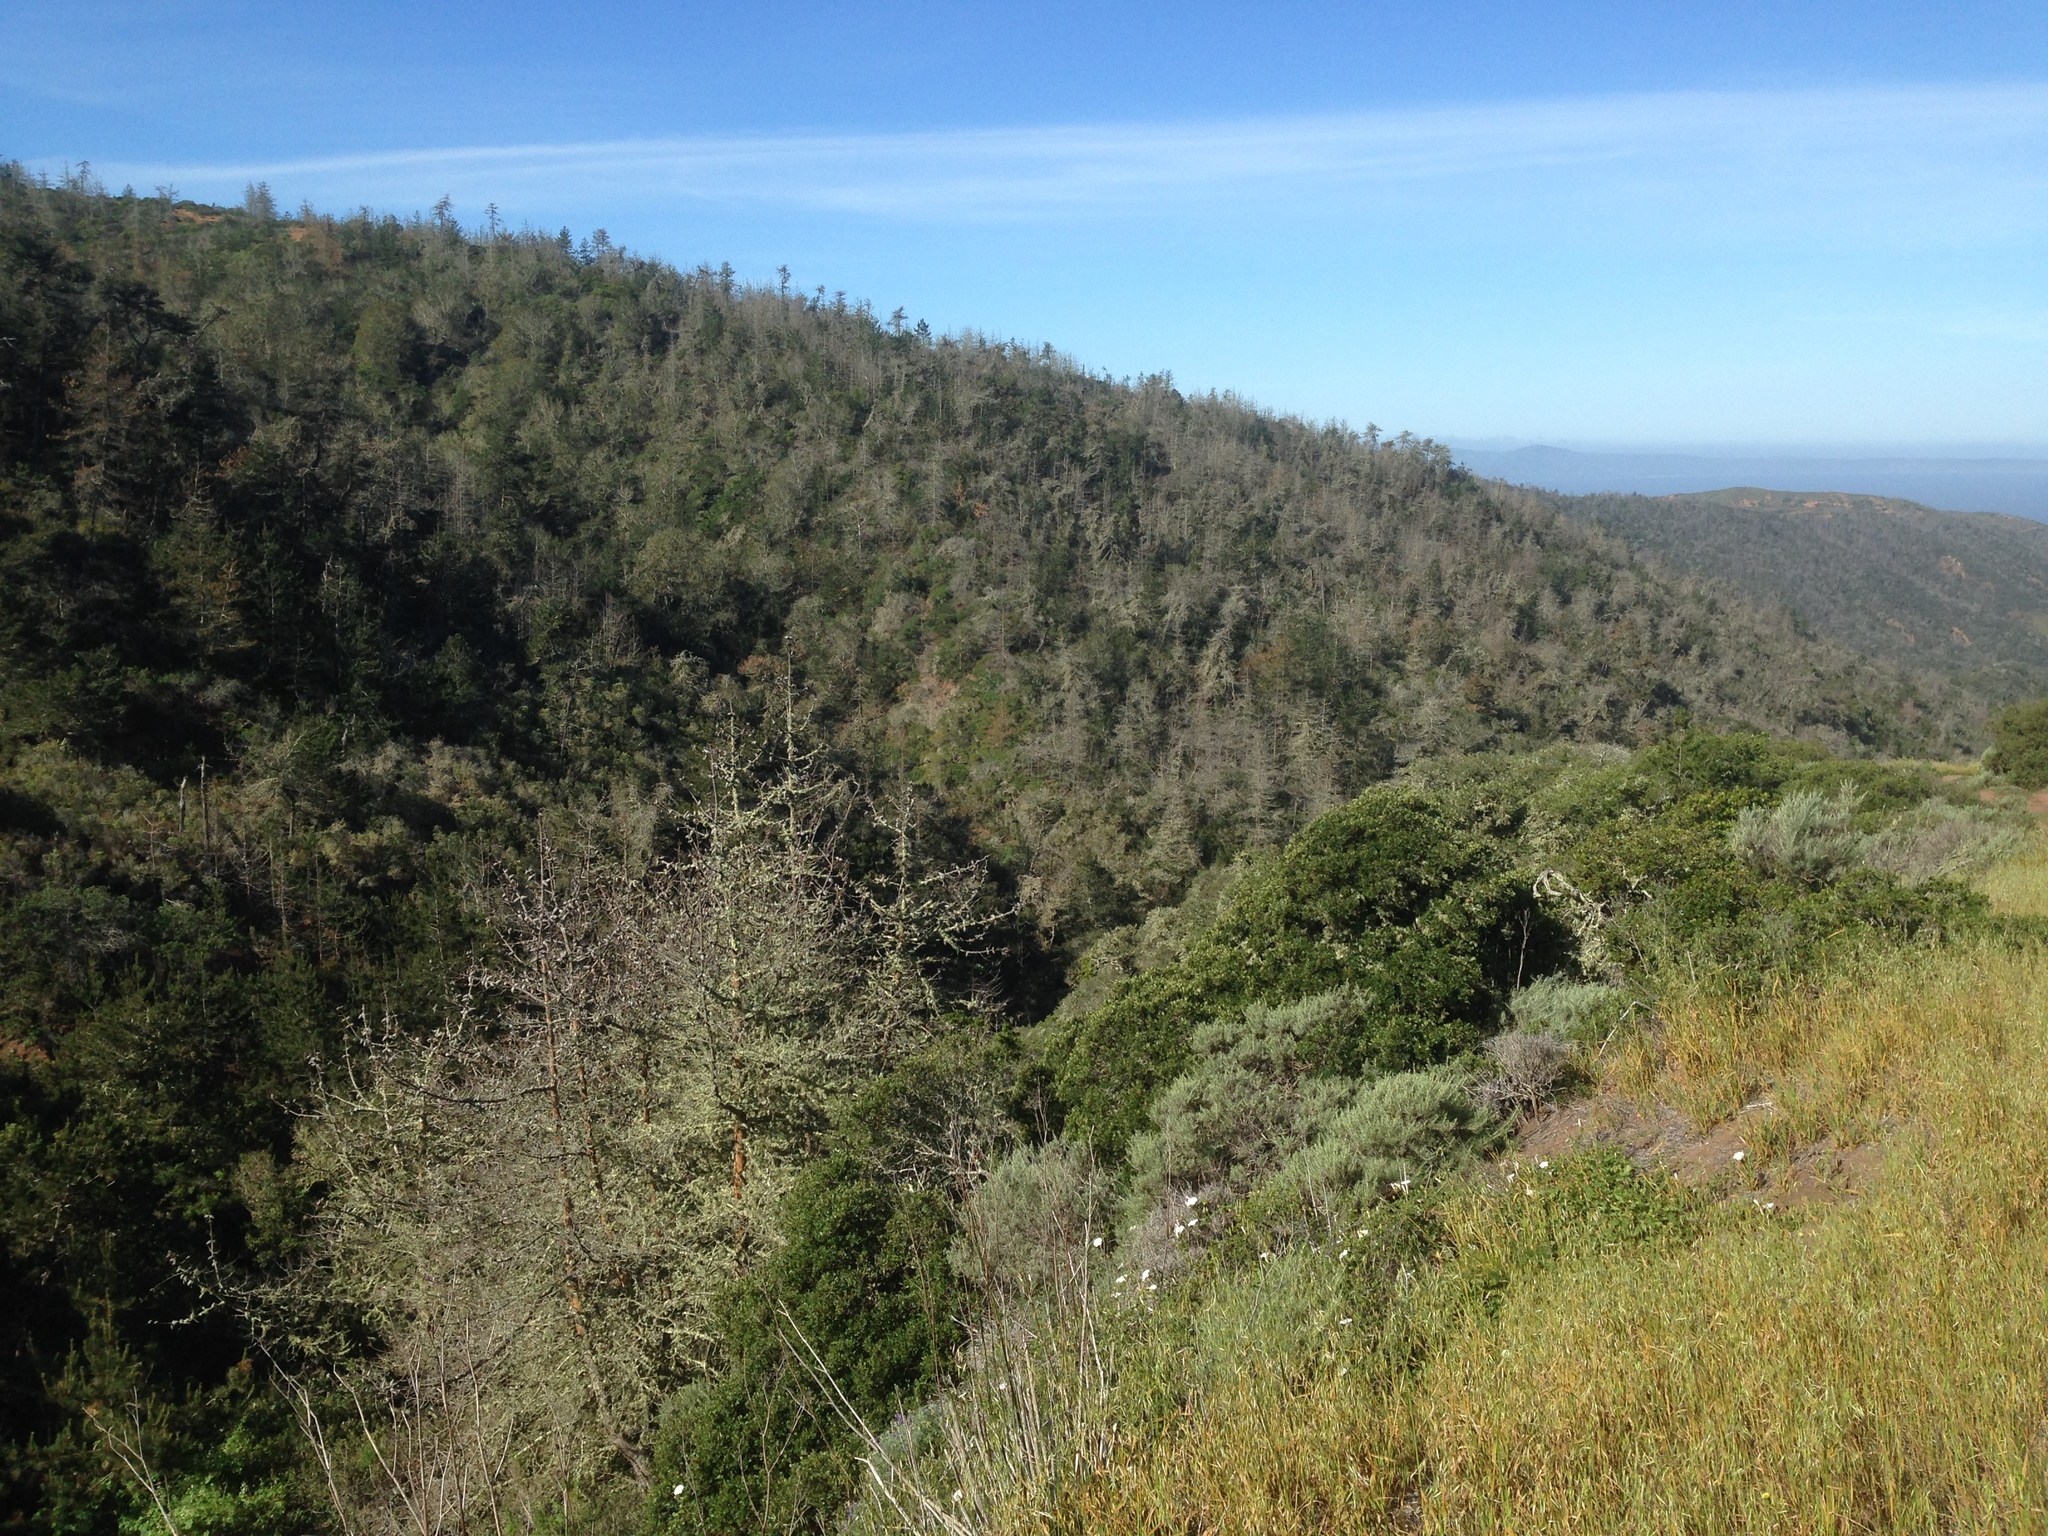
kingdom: Plantae
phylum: Tracheophyta
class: Pinopsida
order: Pinales
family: Pinaceae
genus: Pinus
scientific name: Pinus muricata
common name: Bishop pine
